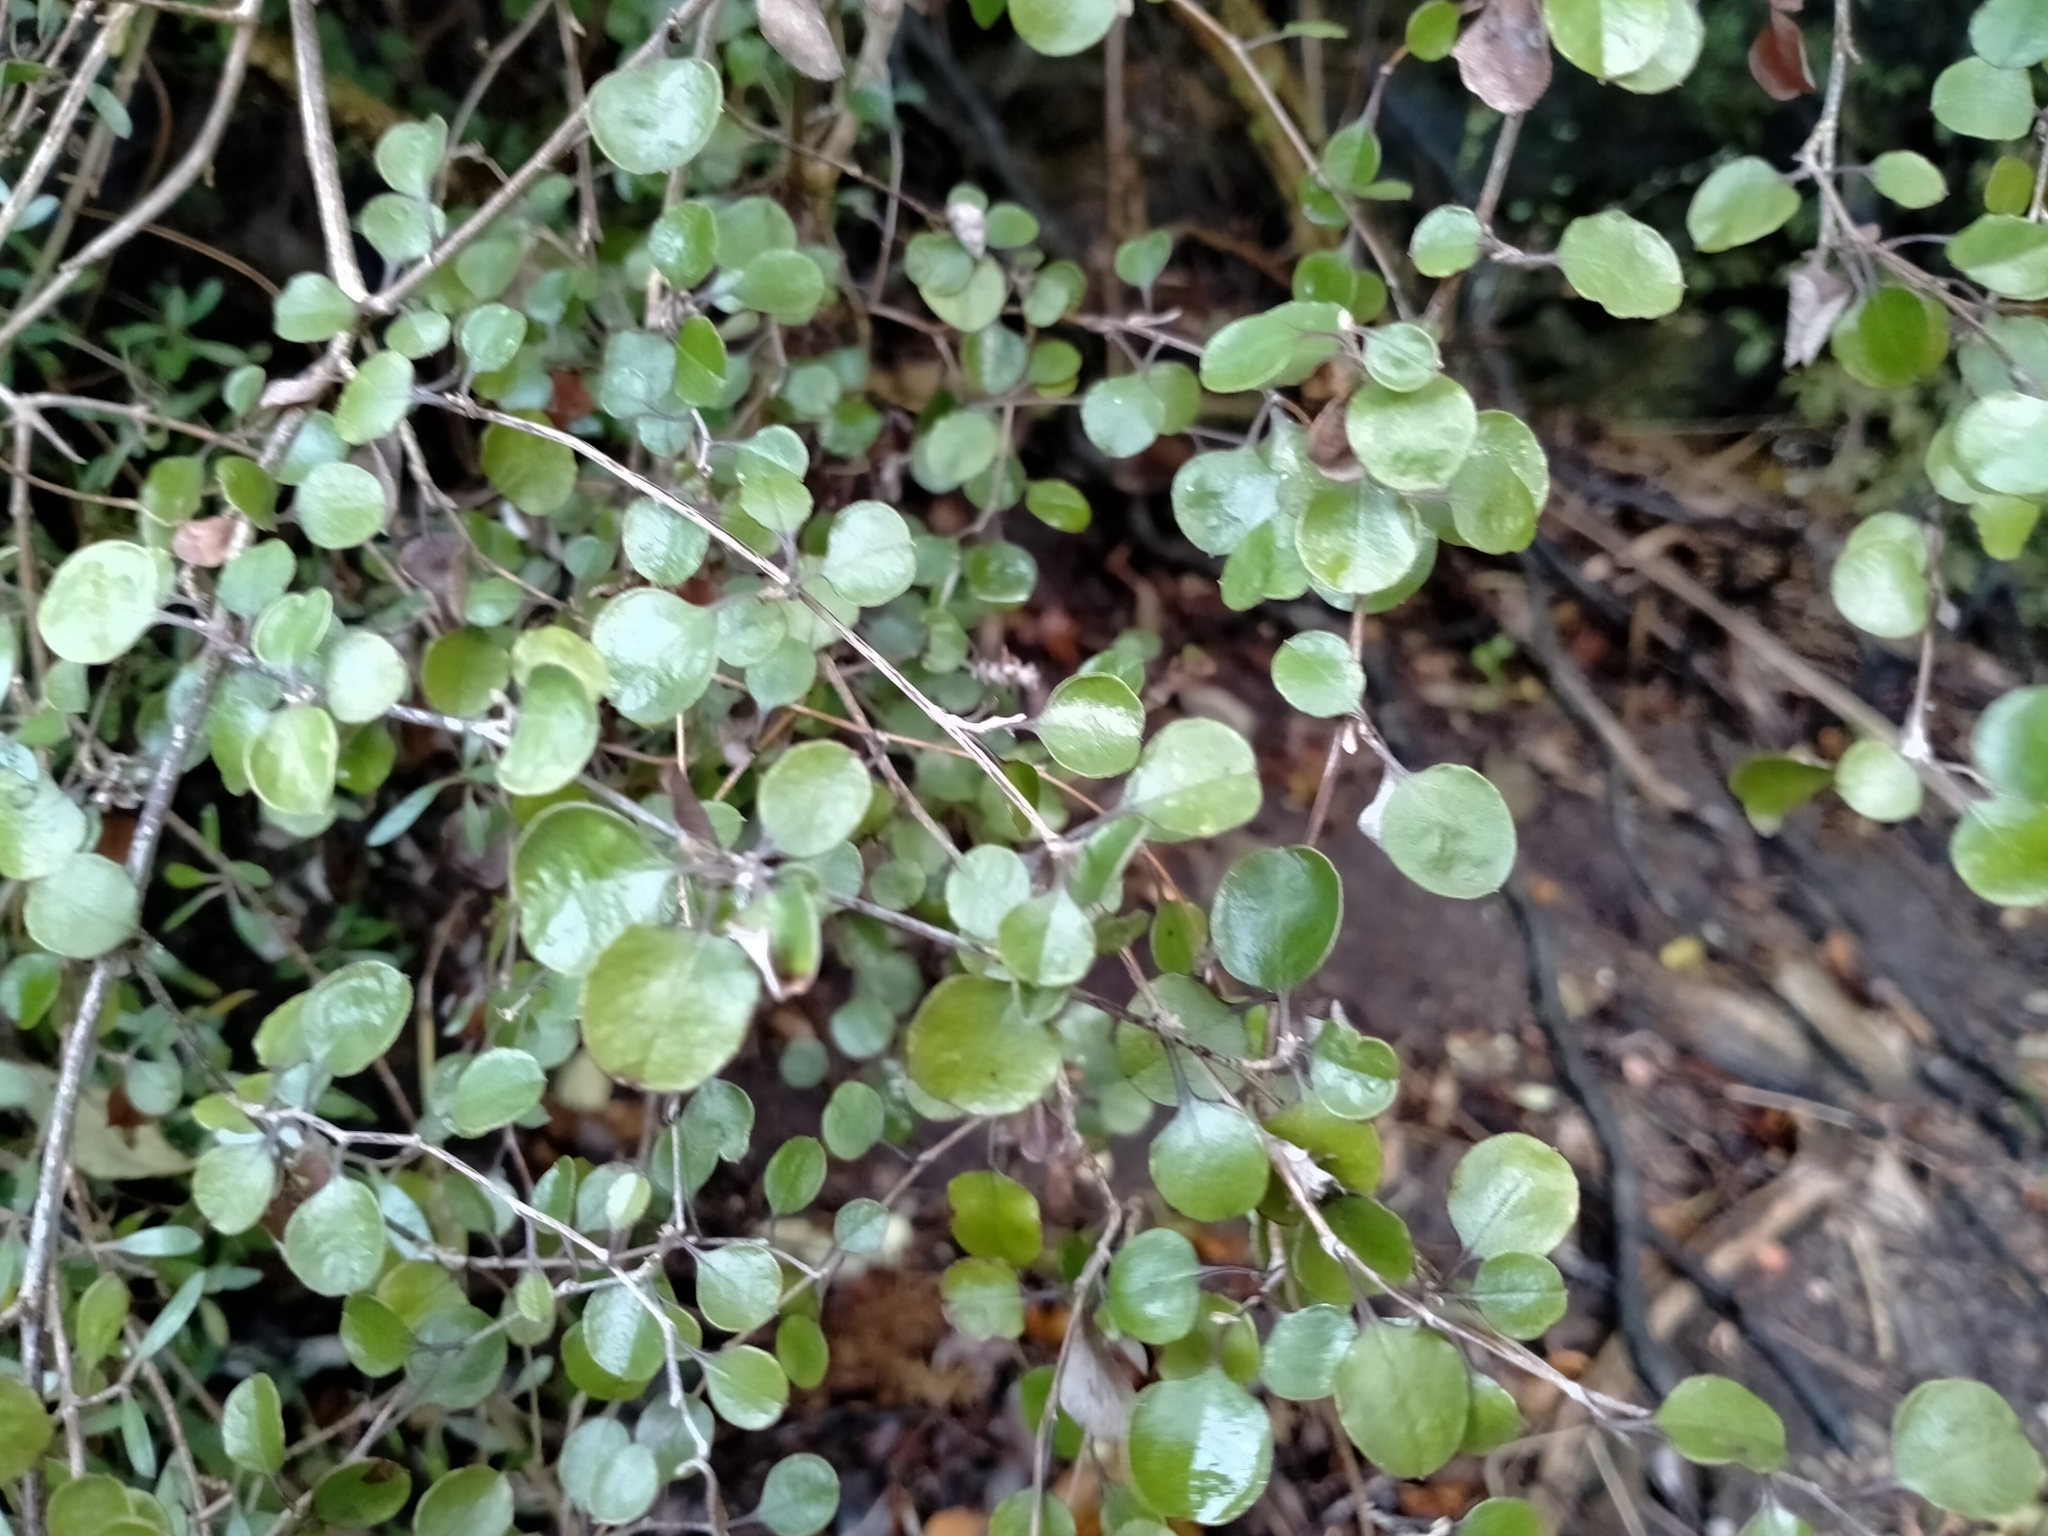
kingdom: Plantae
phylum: Tracheophyta
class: Magnoliopsida
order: Asterales
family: Asteraceae
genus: Ozothamnus
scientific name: Ozothamnus glomeratus
